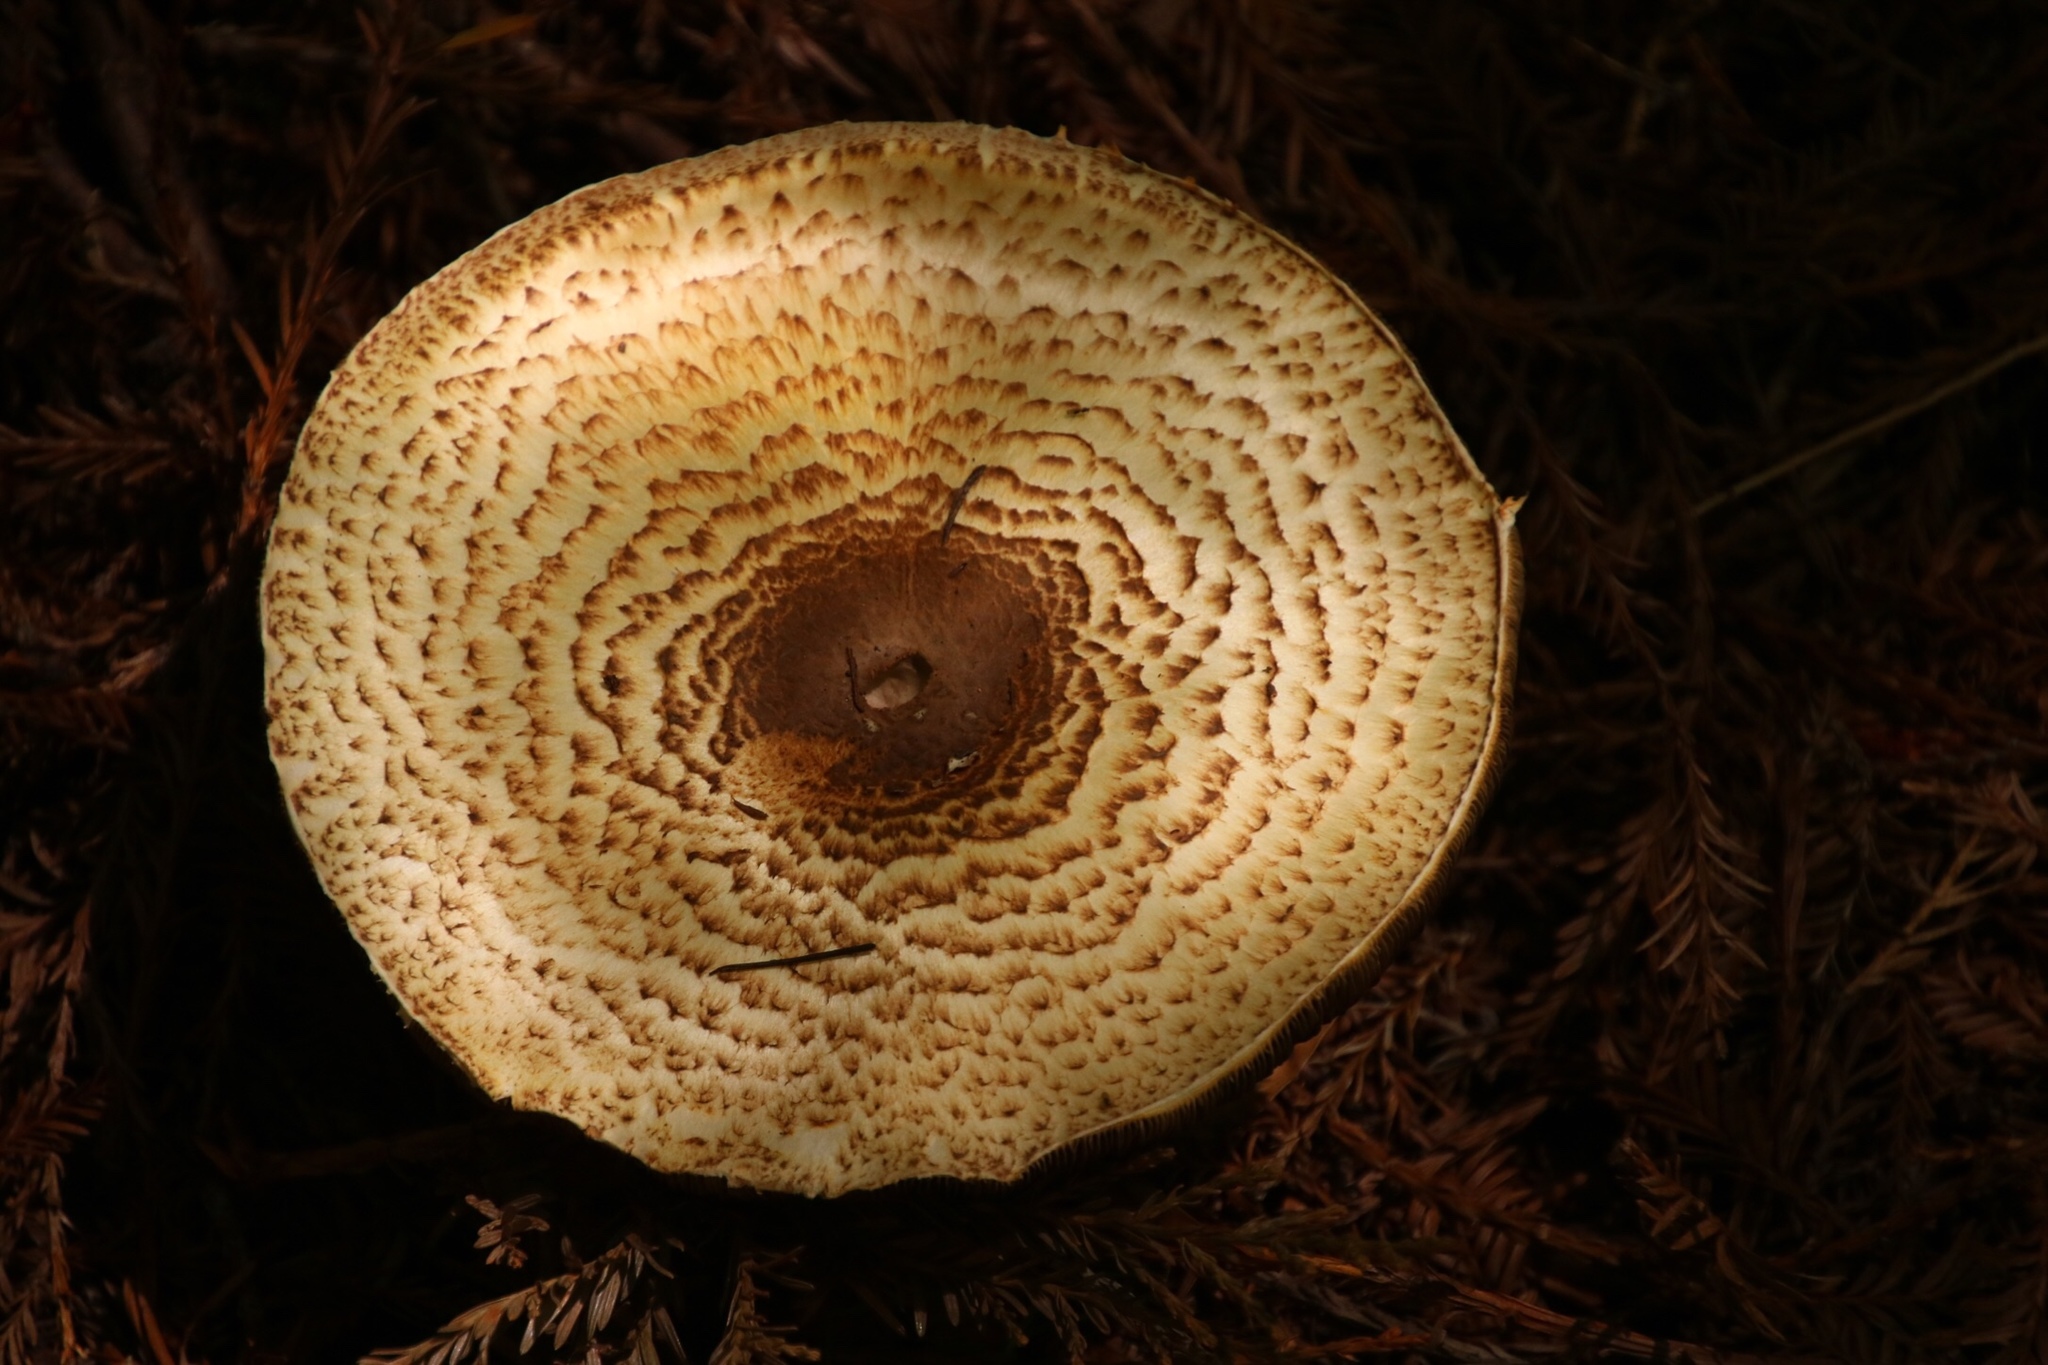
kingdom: Fungi
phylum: Basidiomycota
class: Agaricomycetes
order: Agaricales
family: Agaricaceae
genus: Agaricus
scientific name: Agaricus augustus
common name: Prince
